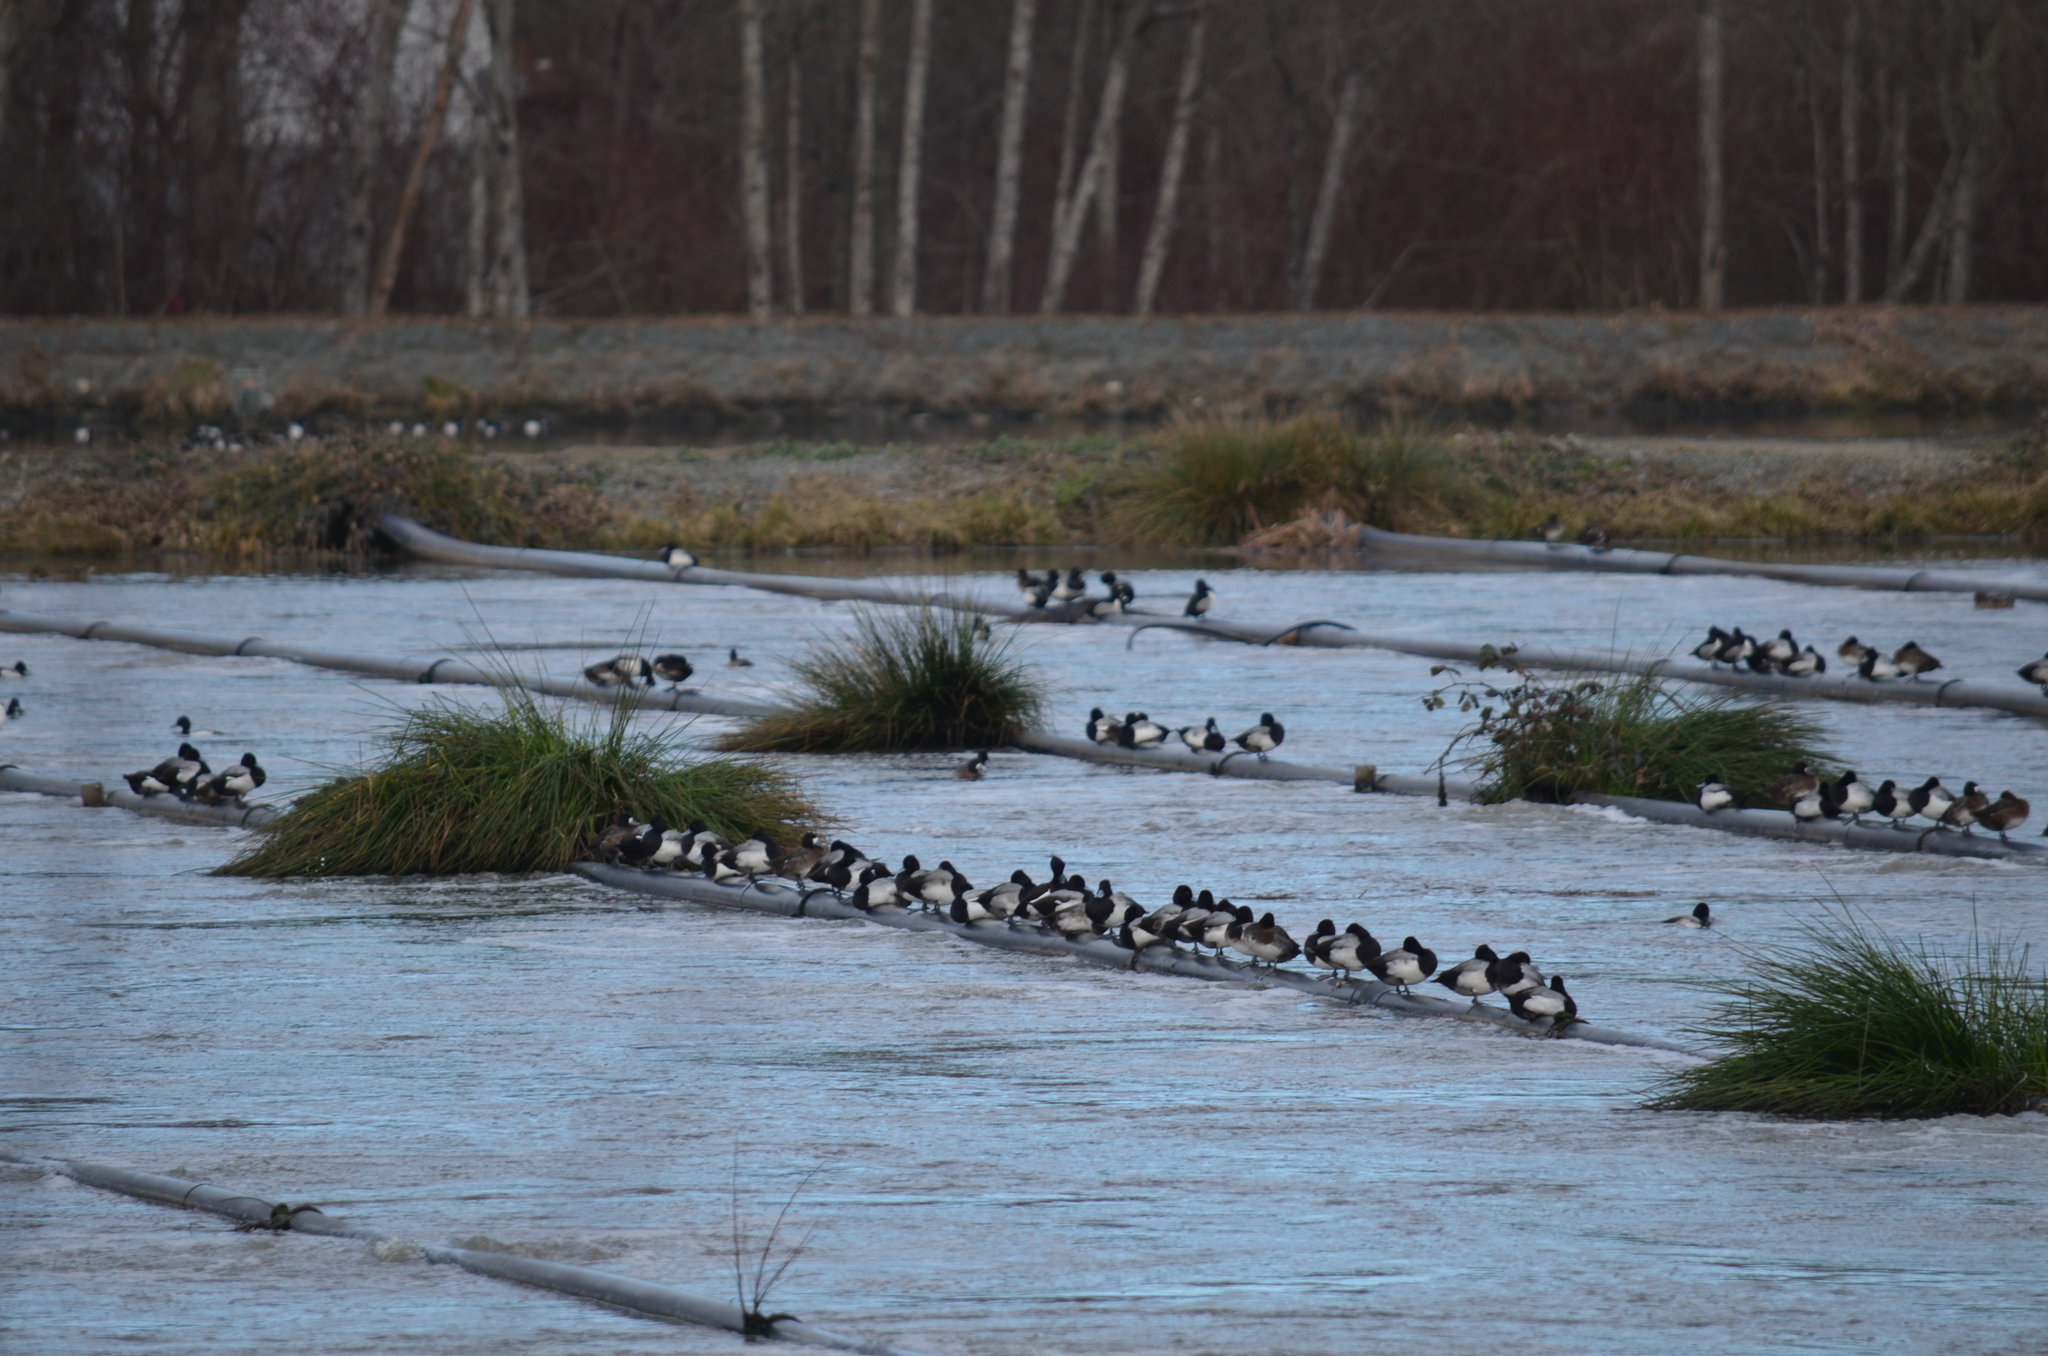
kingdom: Animalia
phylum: Chordata
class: Aves
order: Anseriformes
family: Anatidae
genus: Aythya
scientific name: Aythya fuligula
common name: Tufted duck
